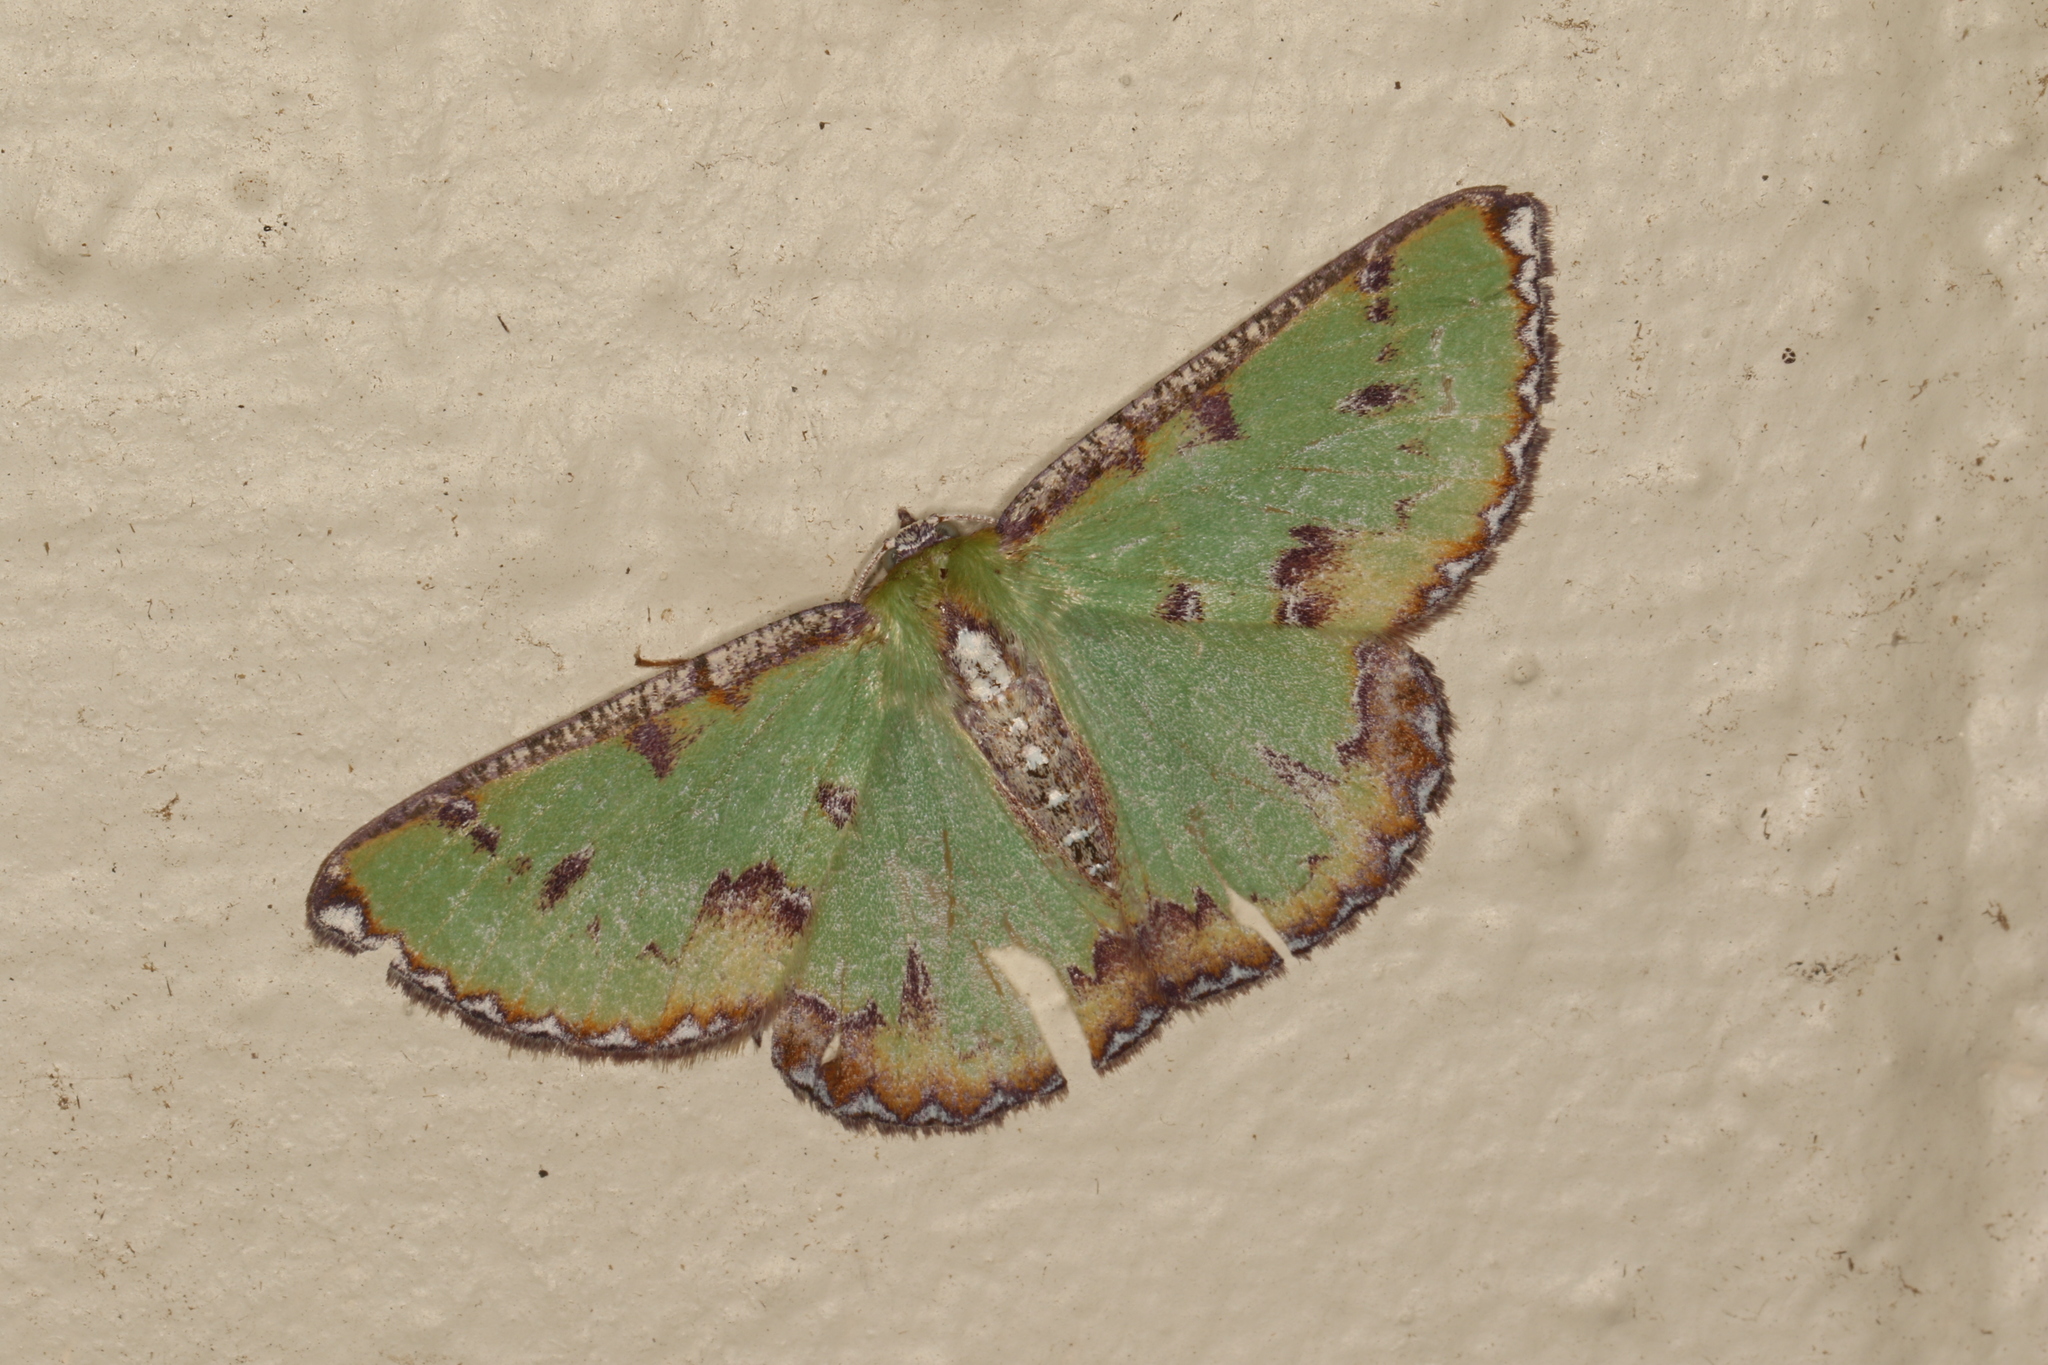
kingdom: Animalia
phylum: Arthropoda
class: Insecta
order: Lepidoptera
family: Geometridae
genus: Eucyclodes
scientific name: Eucyclodes buprestaria
